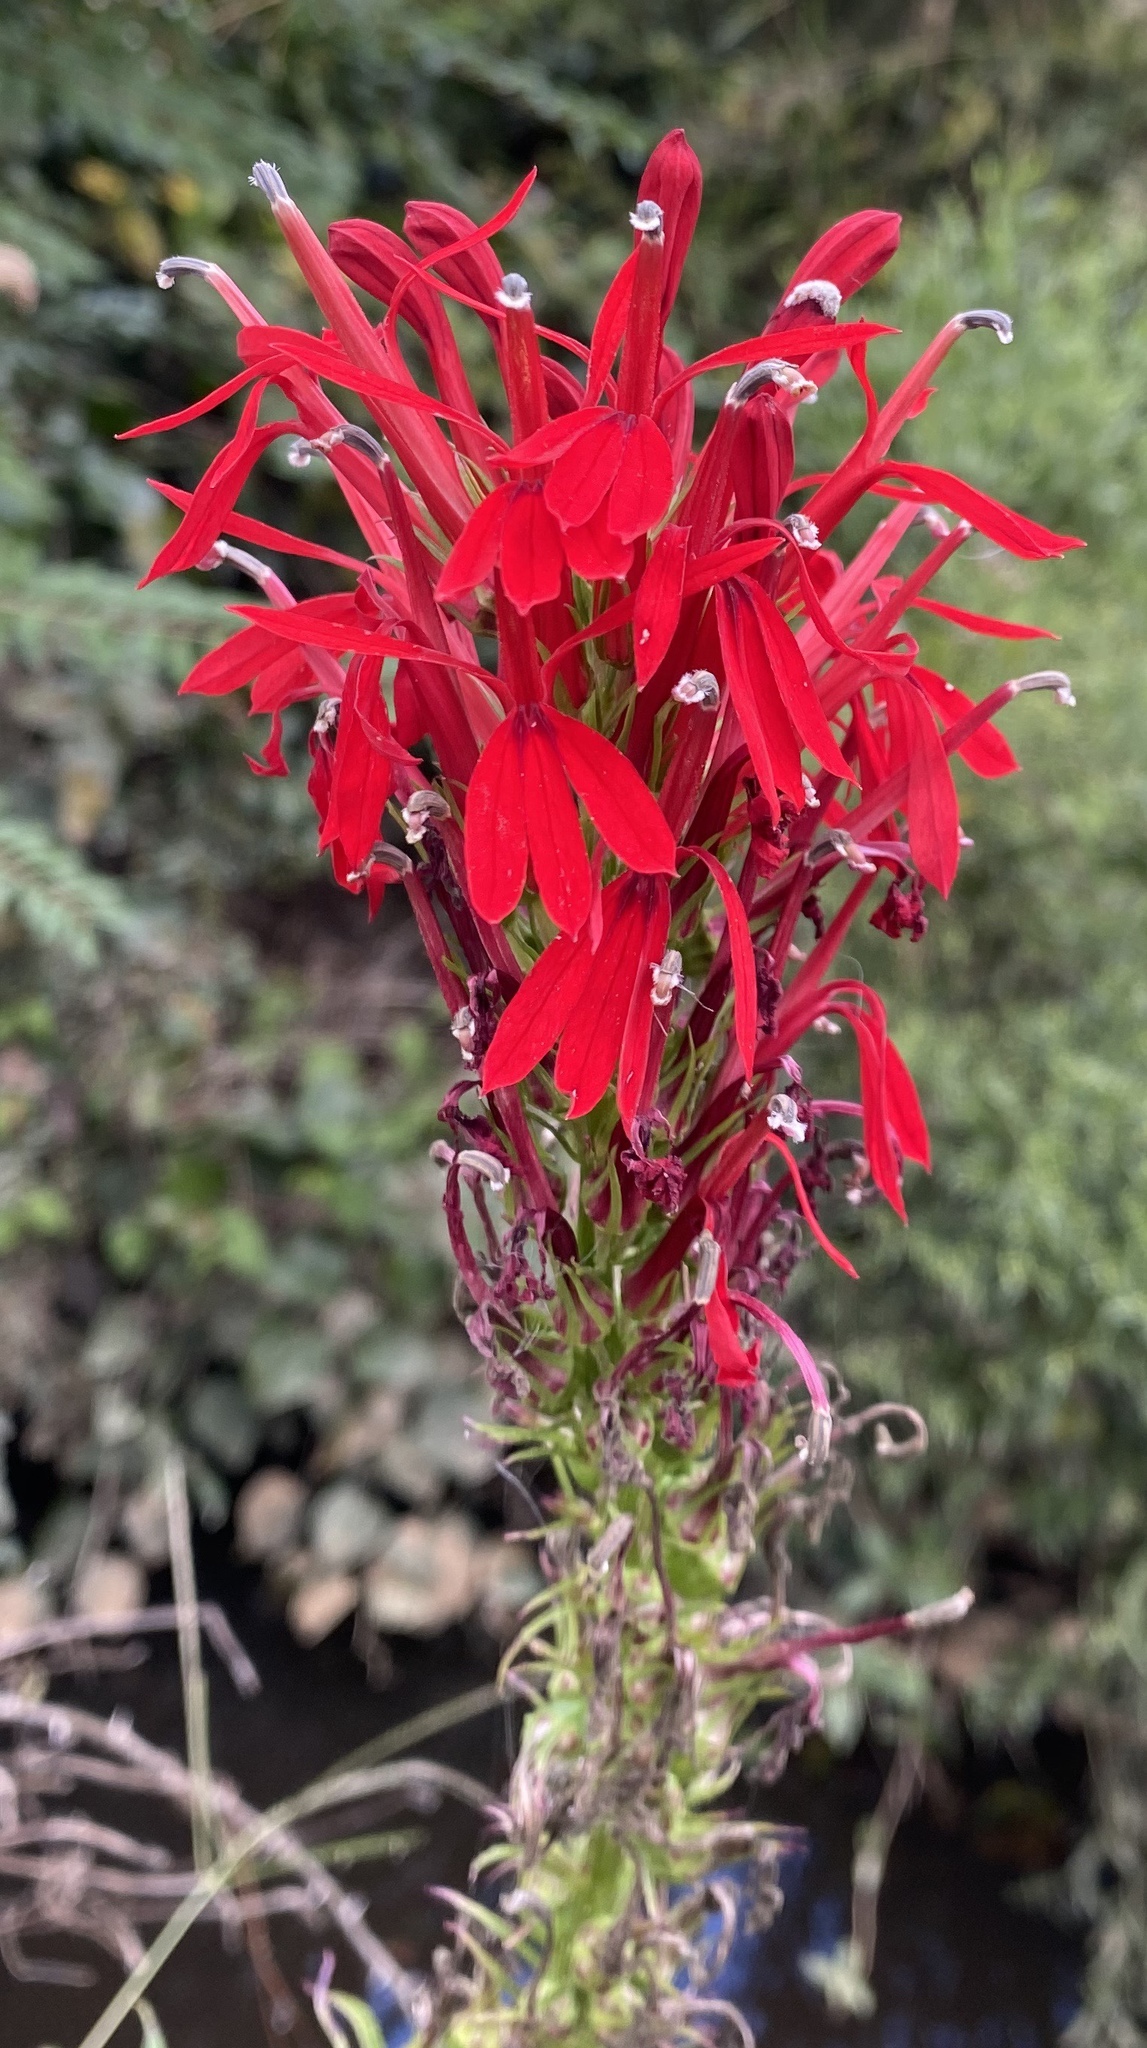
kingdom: Plantae
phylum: Tracheophyta
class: Magnoliopsida
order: Asterales
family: Campanulaceae
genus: Lobelia
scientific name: Lobelia cardinalis
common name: Cardinal flower
